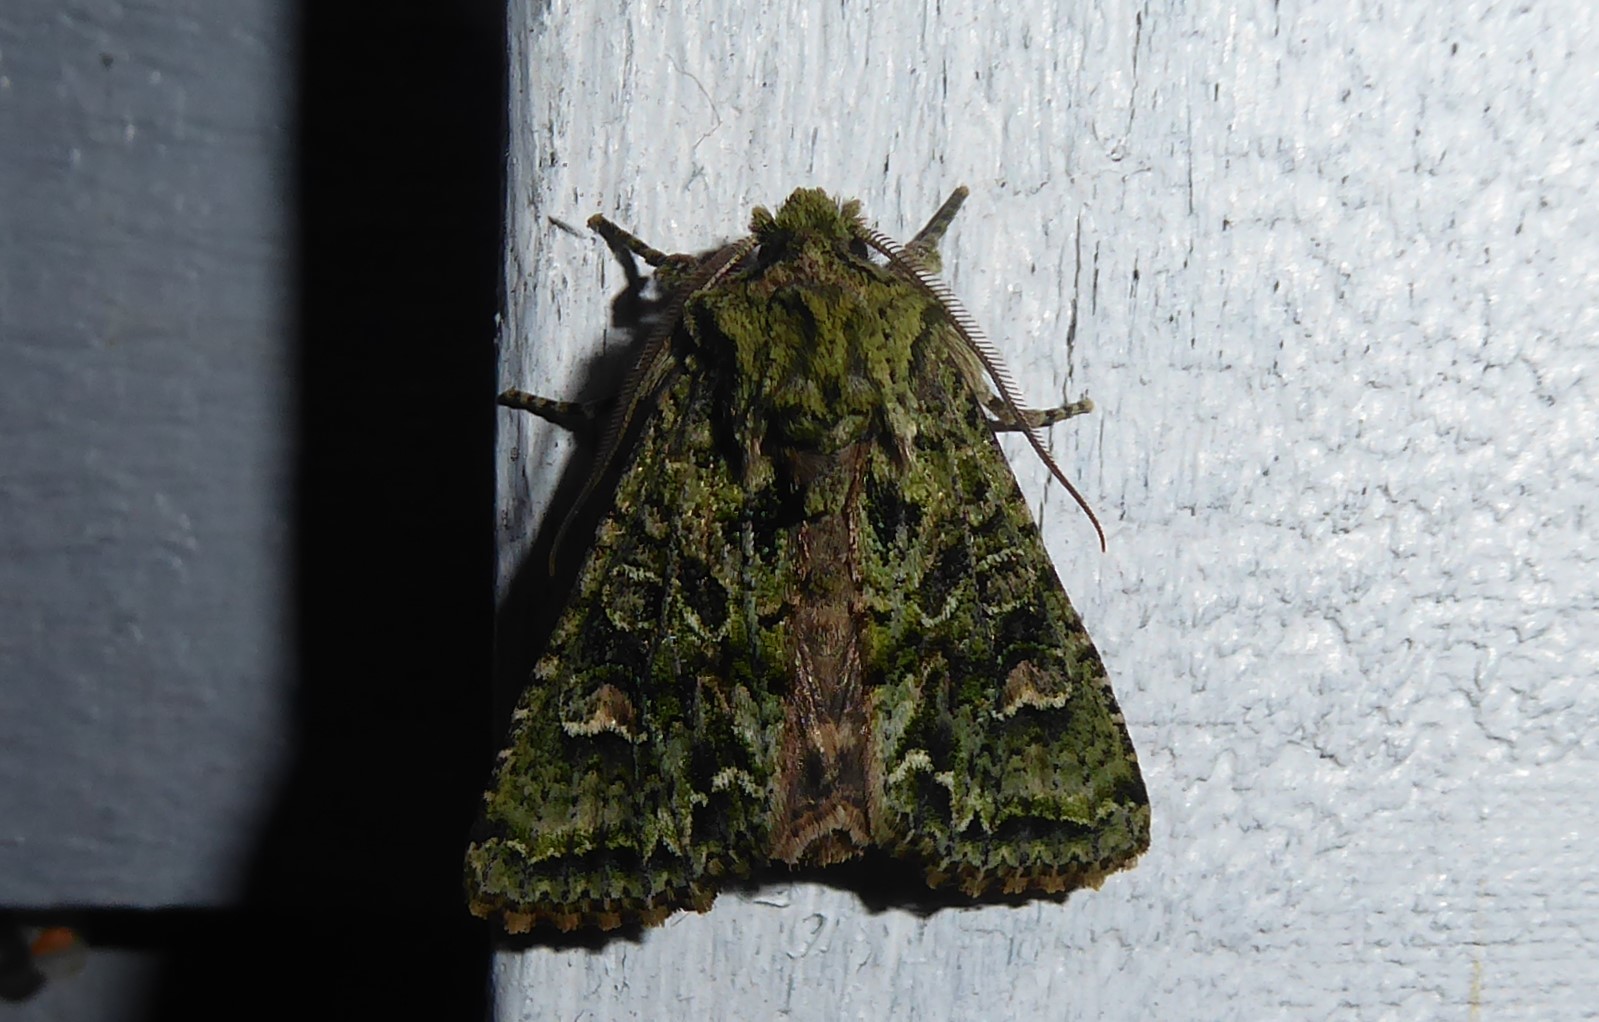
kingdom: Animalia
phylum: Arthropoda
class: Insecta
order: Lepidoptera
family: Noctuidae
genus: Ichneutica
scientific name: Ichneutica
